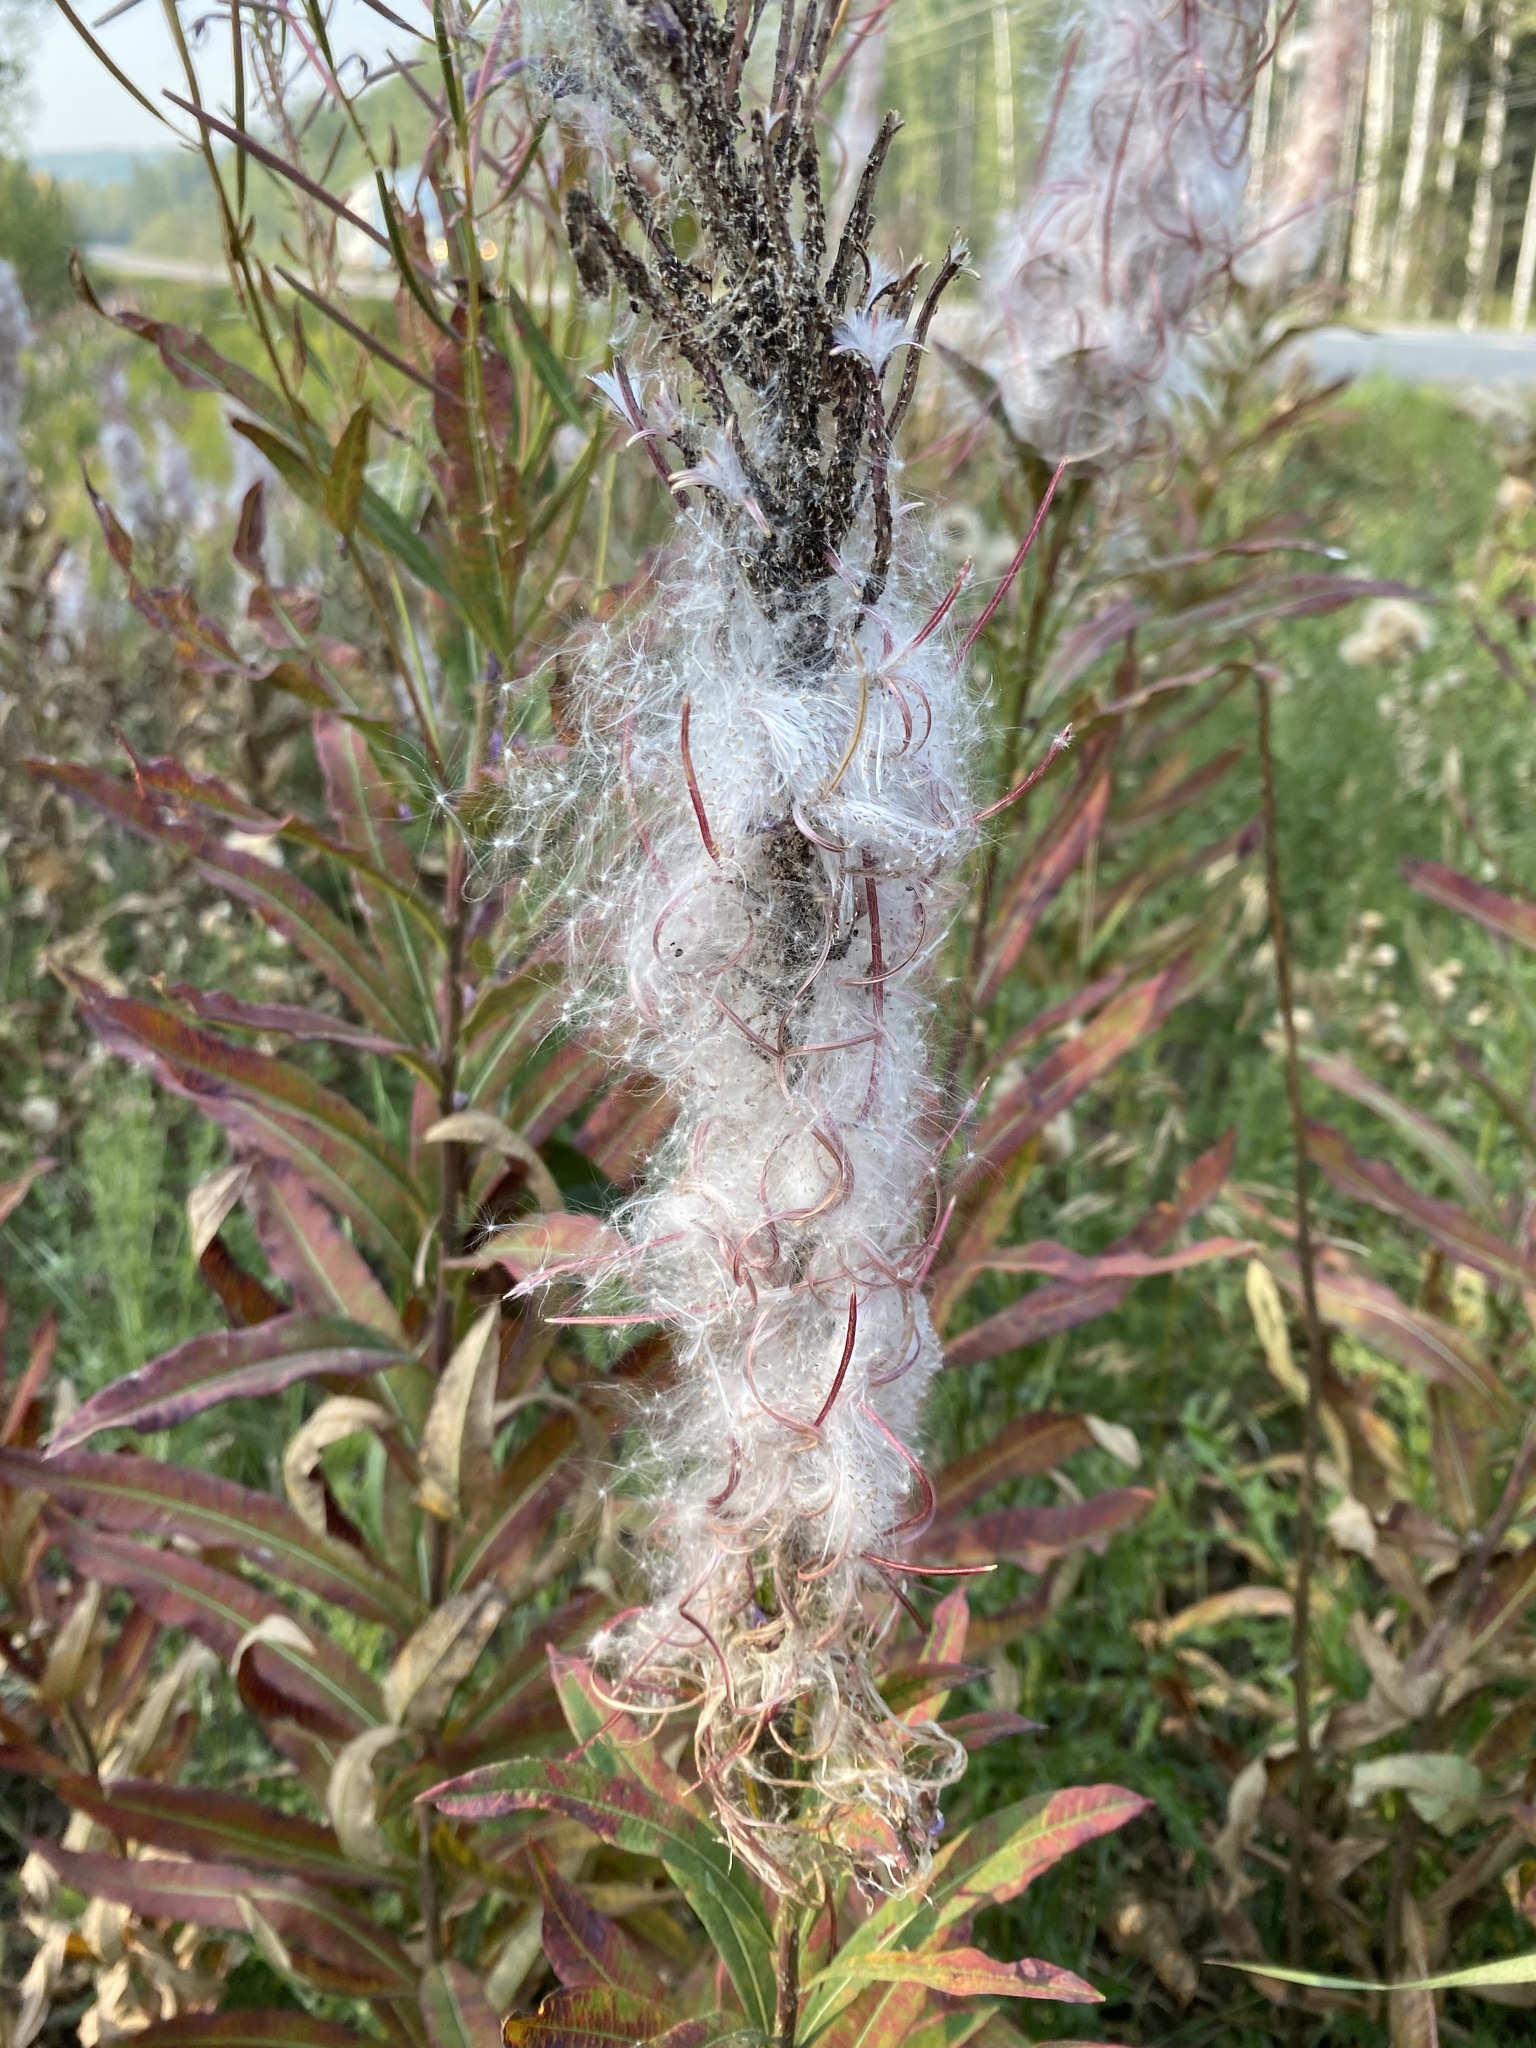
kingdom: Plantae
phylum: Tracheophyta
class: Magnoliopsida
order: Myrtales
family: Onagraceae
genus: Chamaenerion
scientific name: Chamaenerion angustifolium
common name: Fireweed
